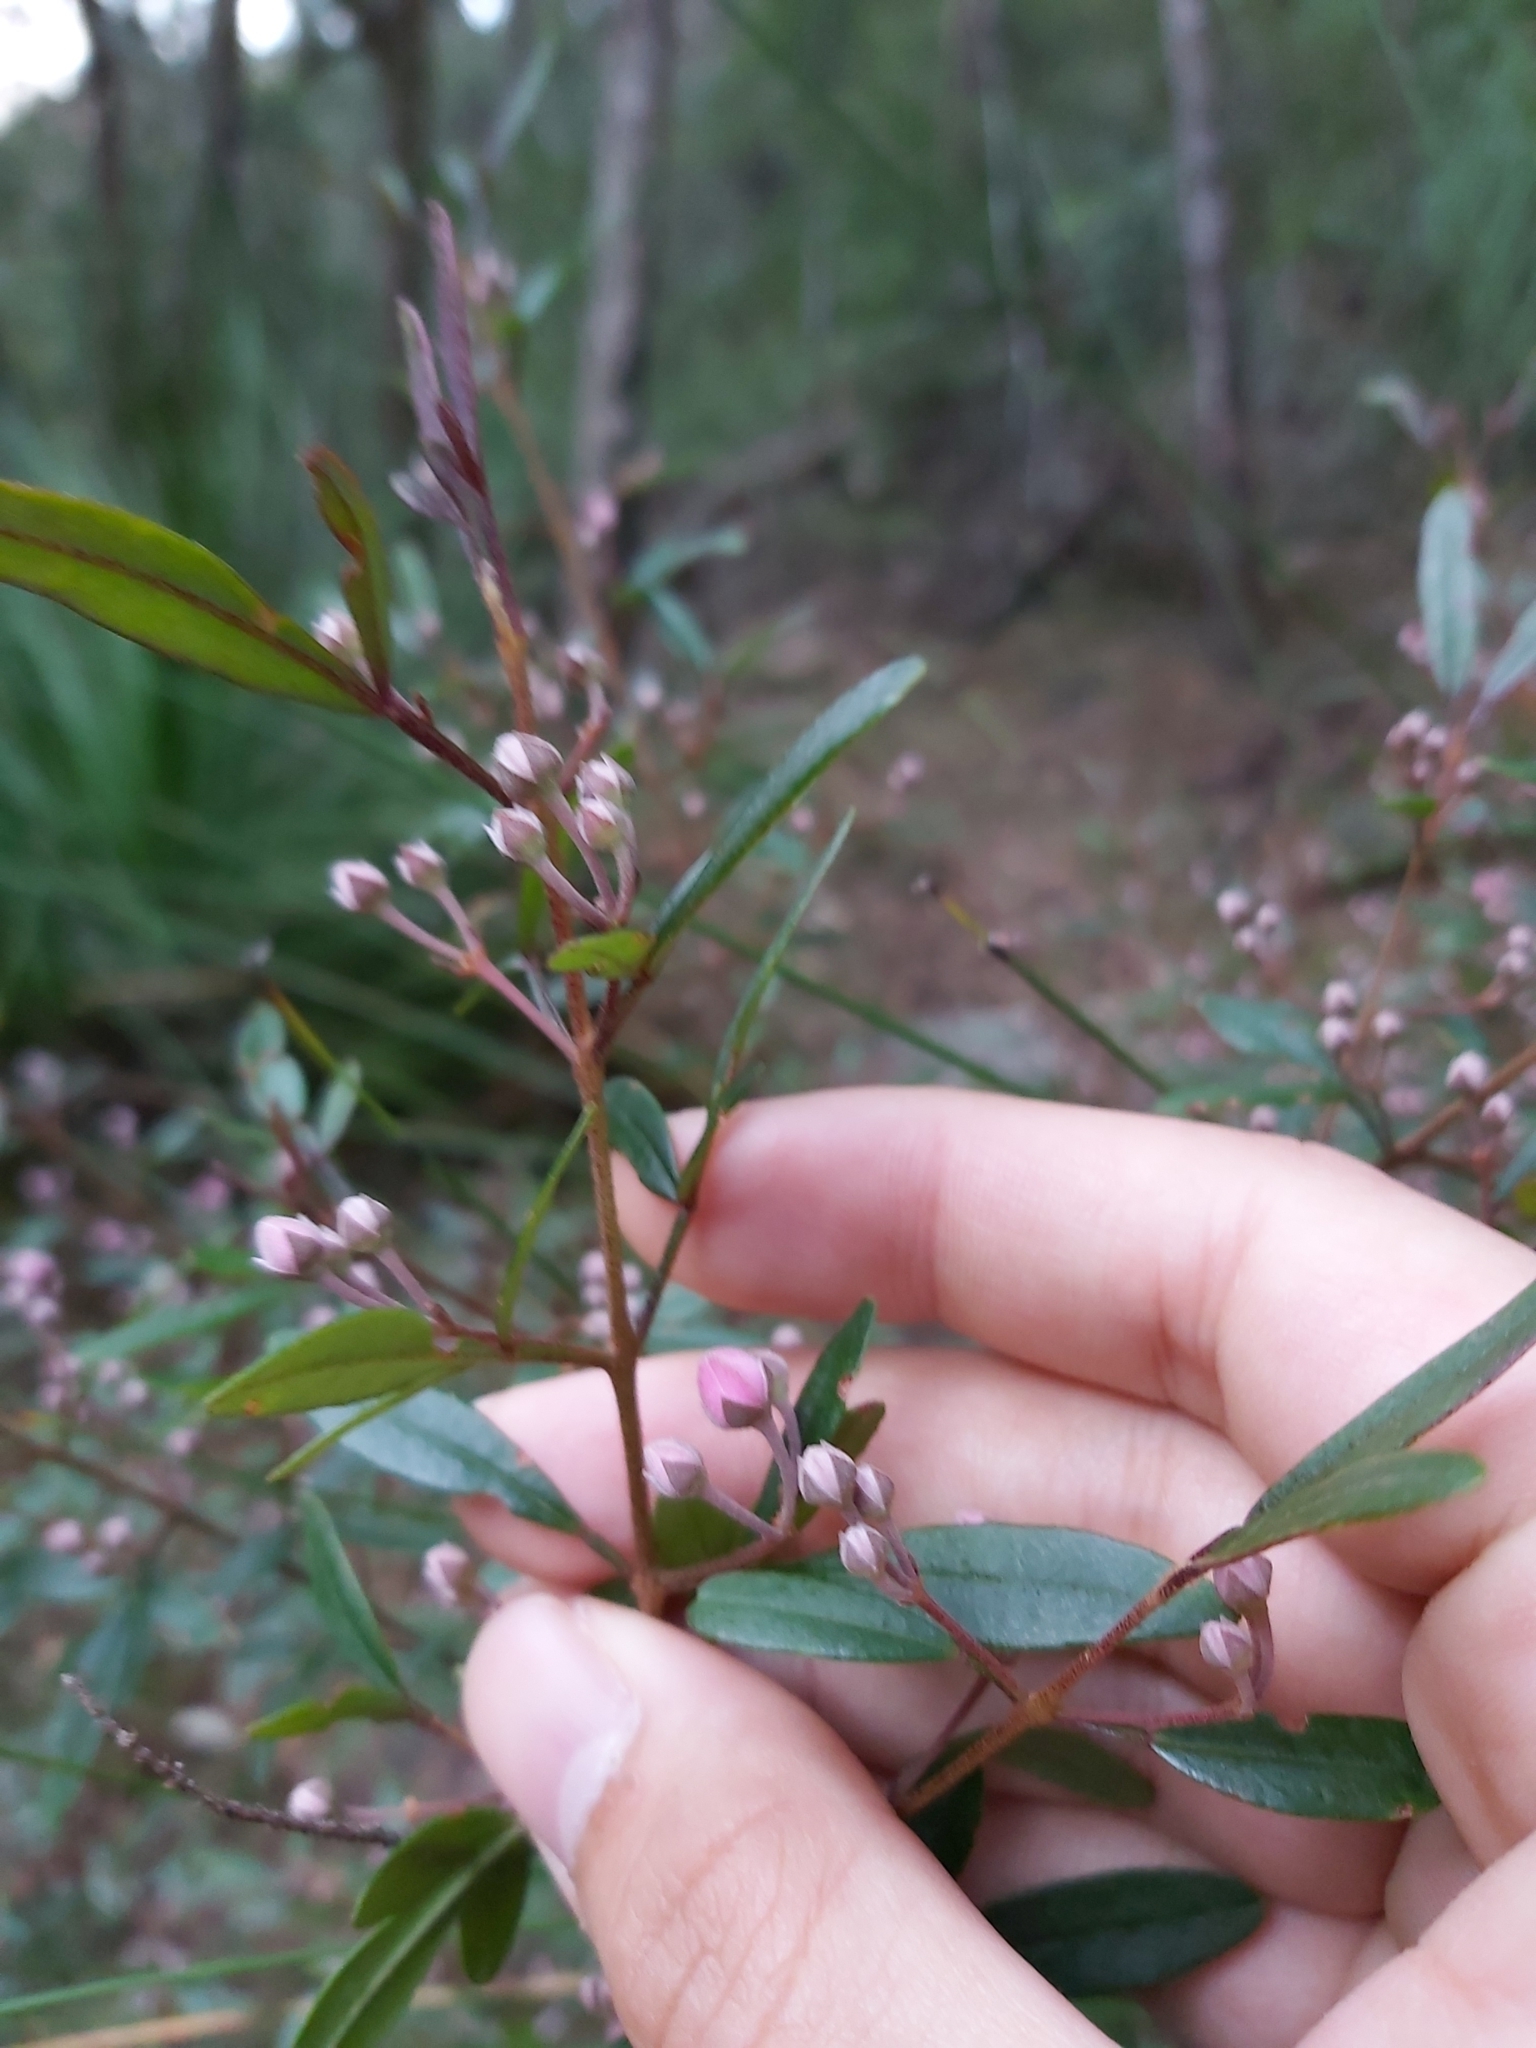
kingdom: Plantae
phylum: Tracheophyta
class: Magnoliopsida
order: Sapindales
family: Rutaceae
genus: Boronia
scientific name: Boronia ledifolia
